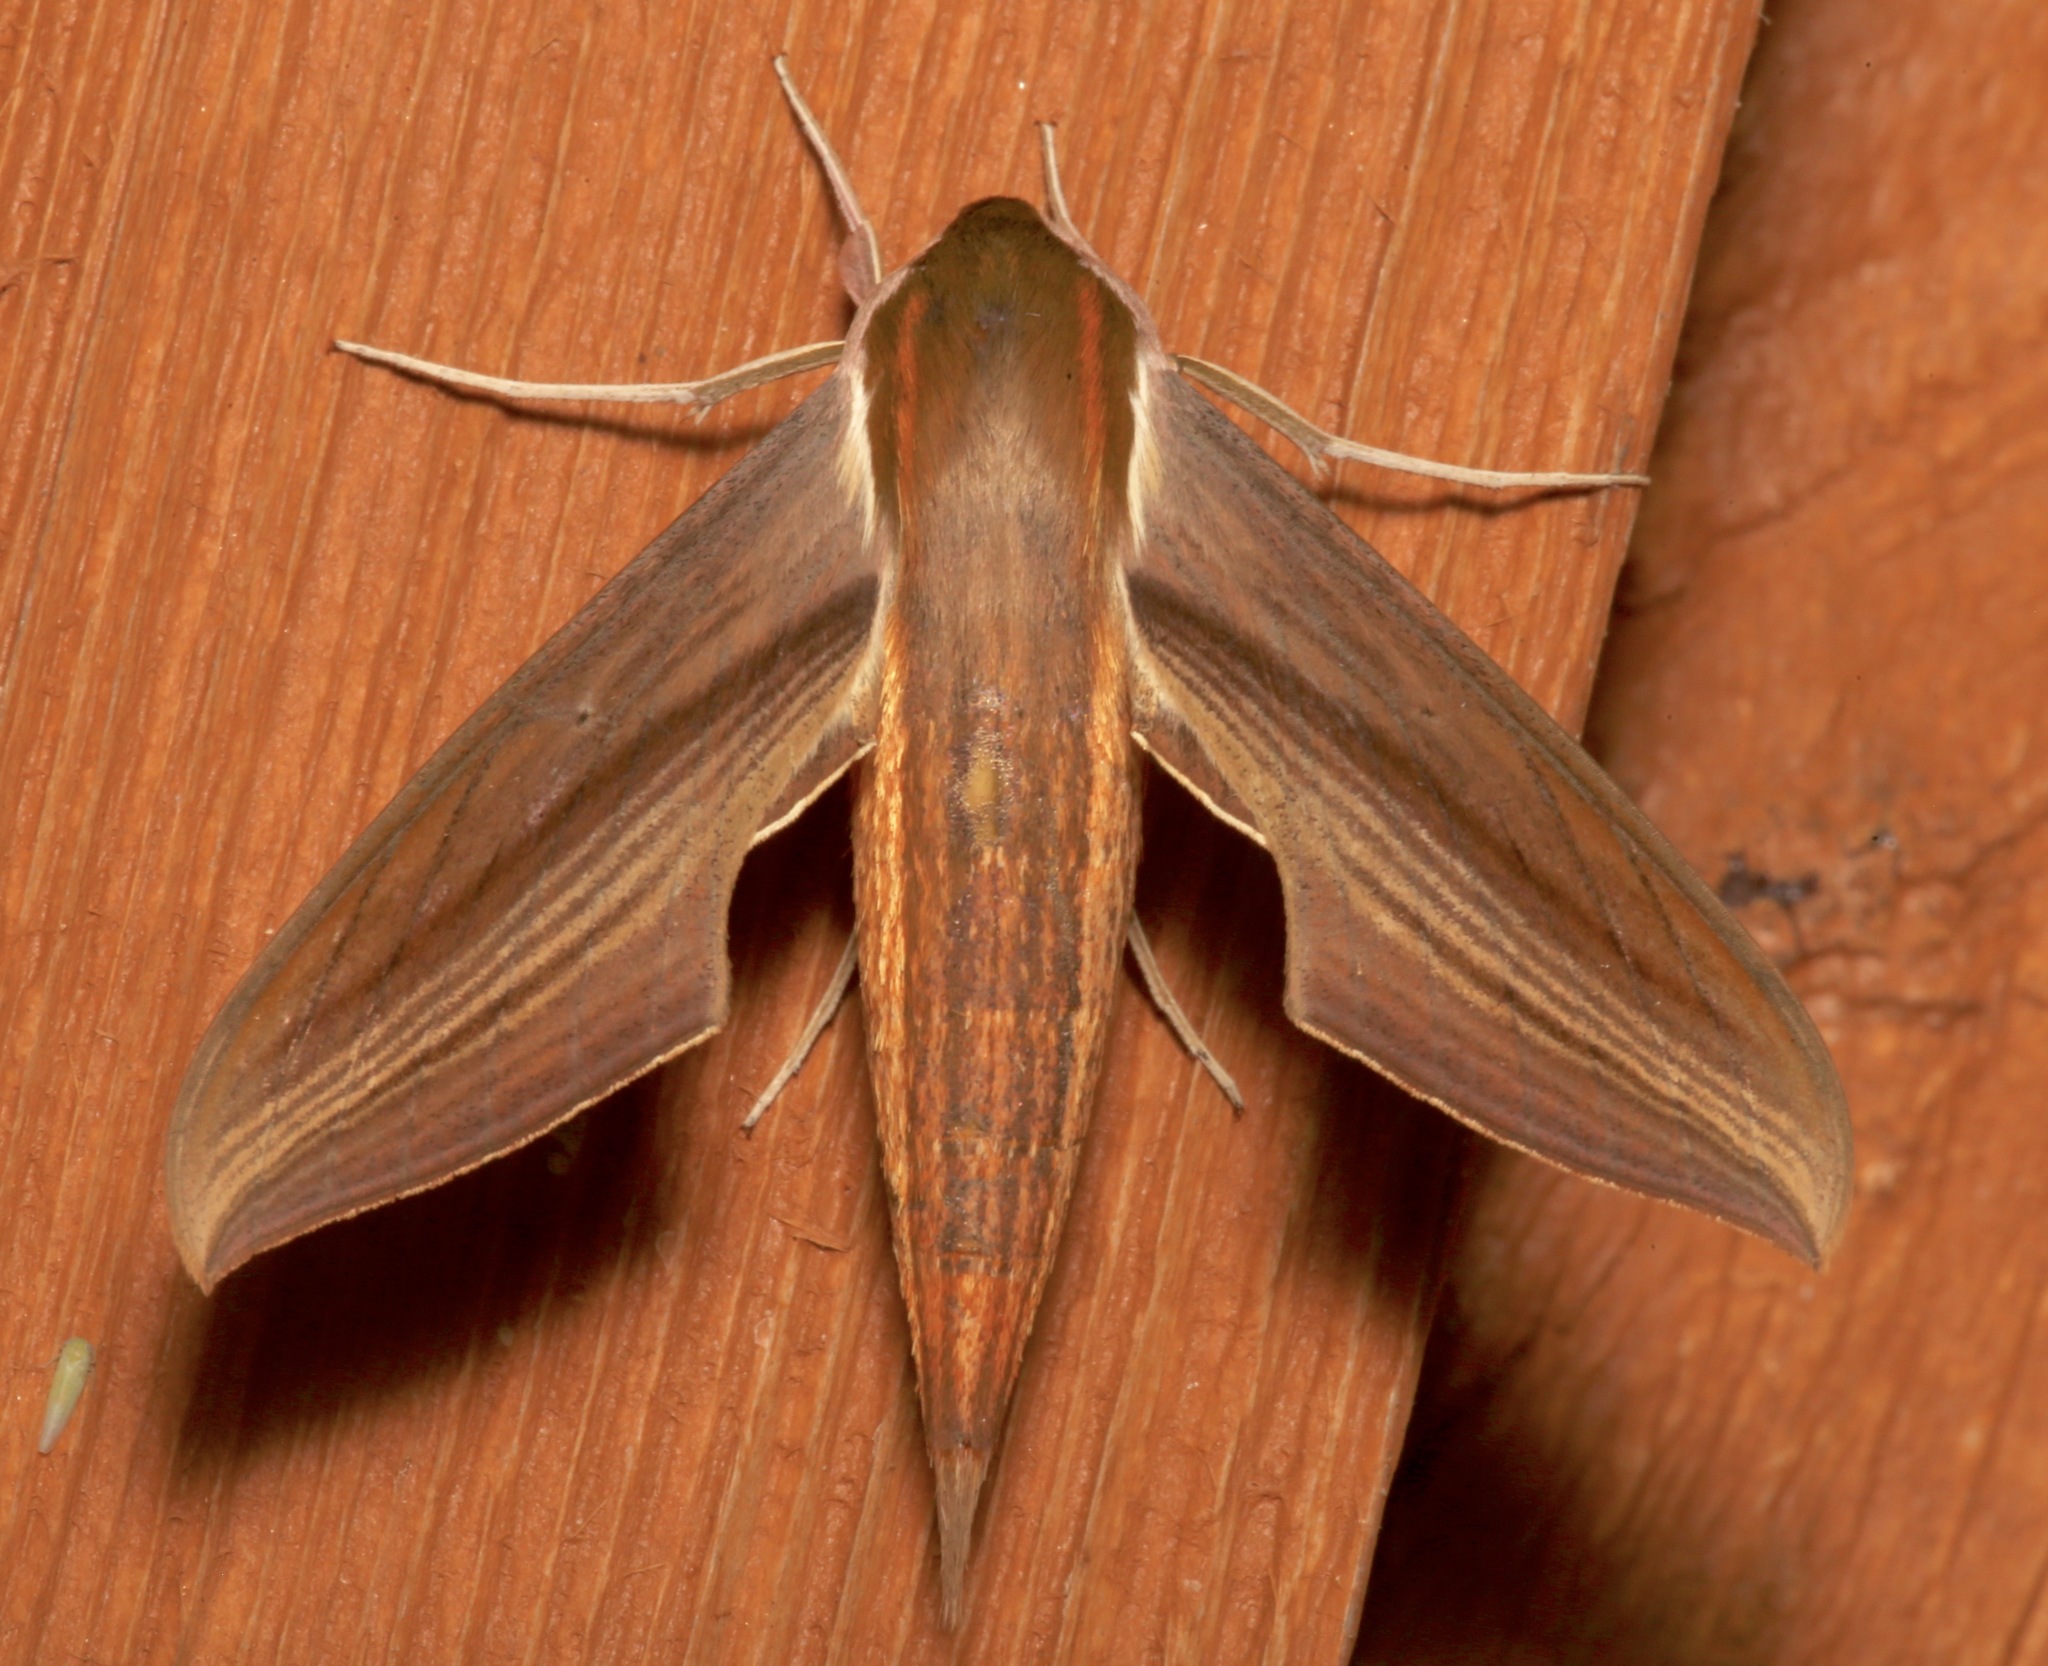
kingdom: Animalia
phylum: Arthropoda
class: Insecta
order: Lepidoptera
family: Sphingidae
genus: Xylophanes
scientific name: Xylophanes tersa
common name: Tersa sphinx
